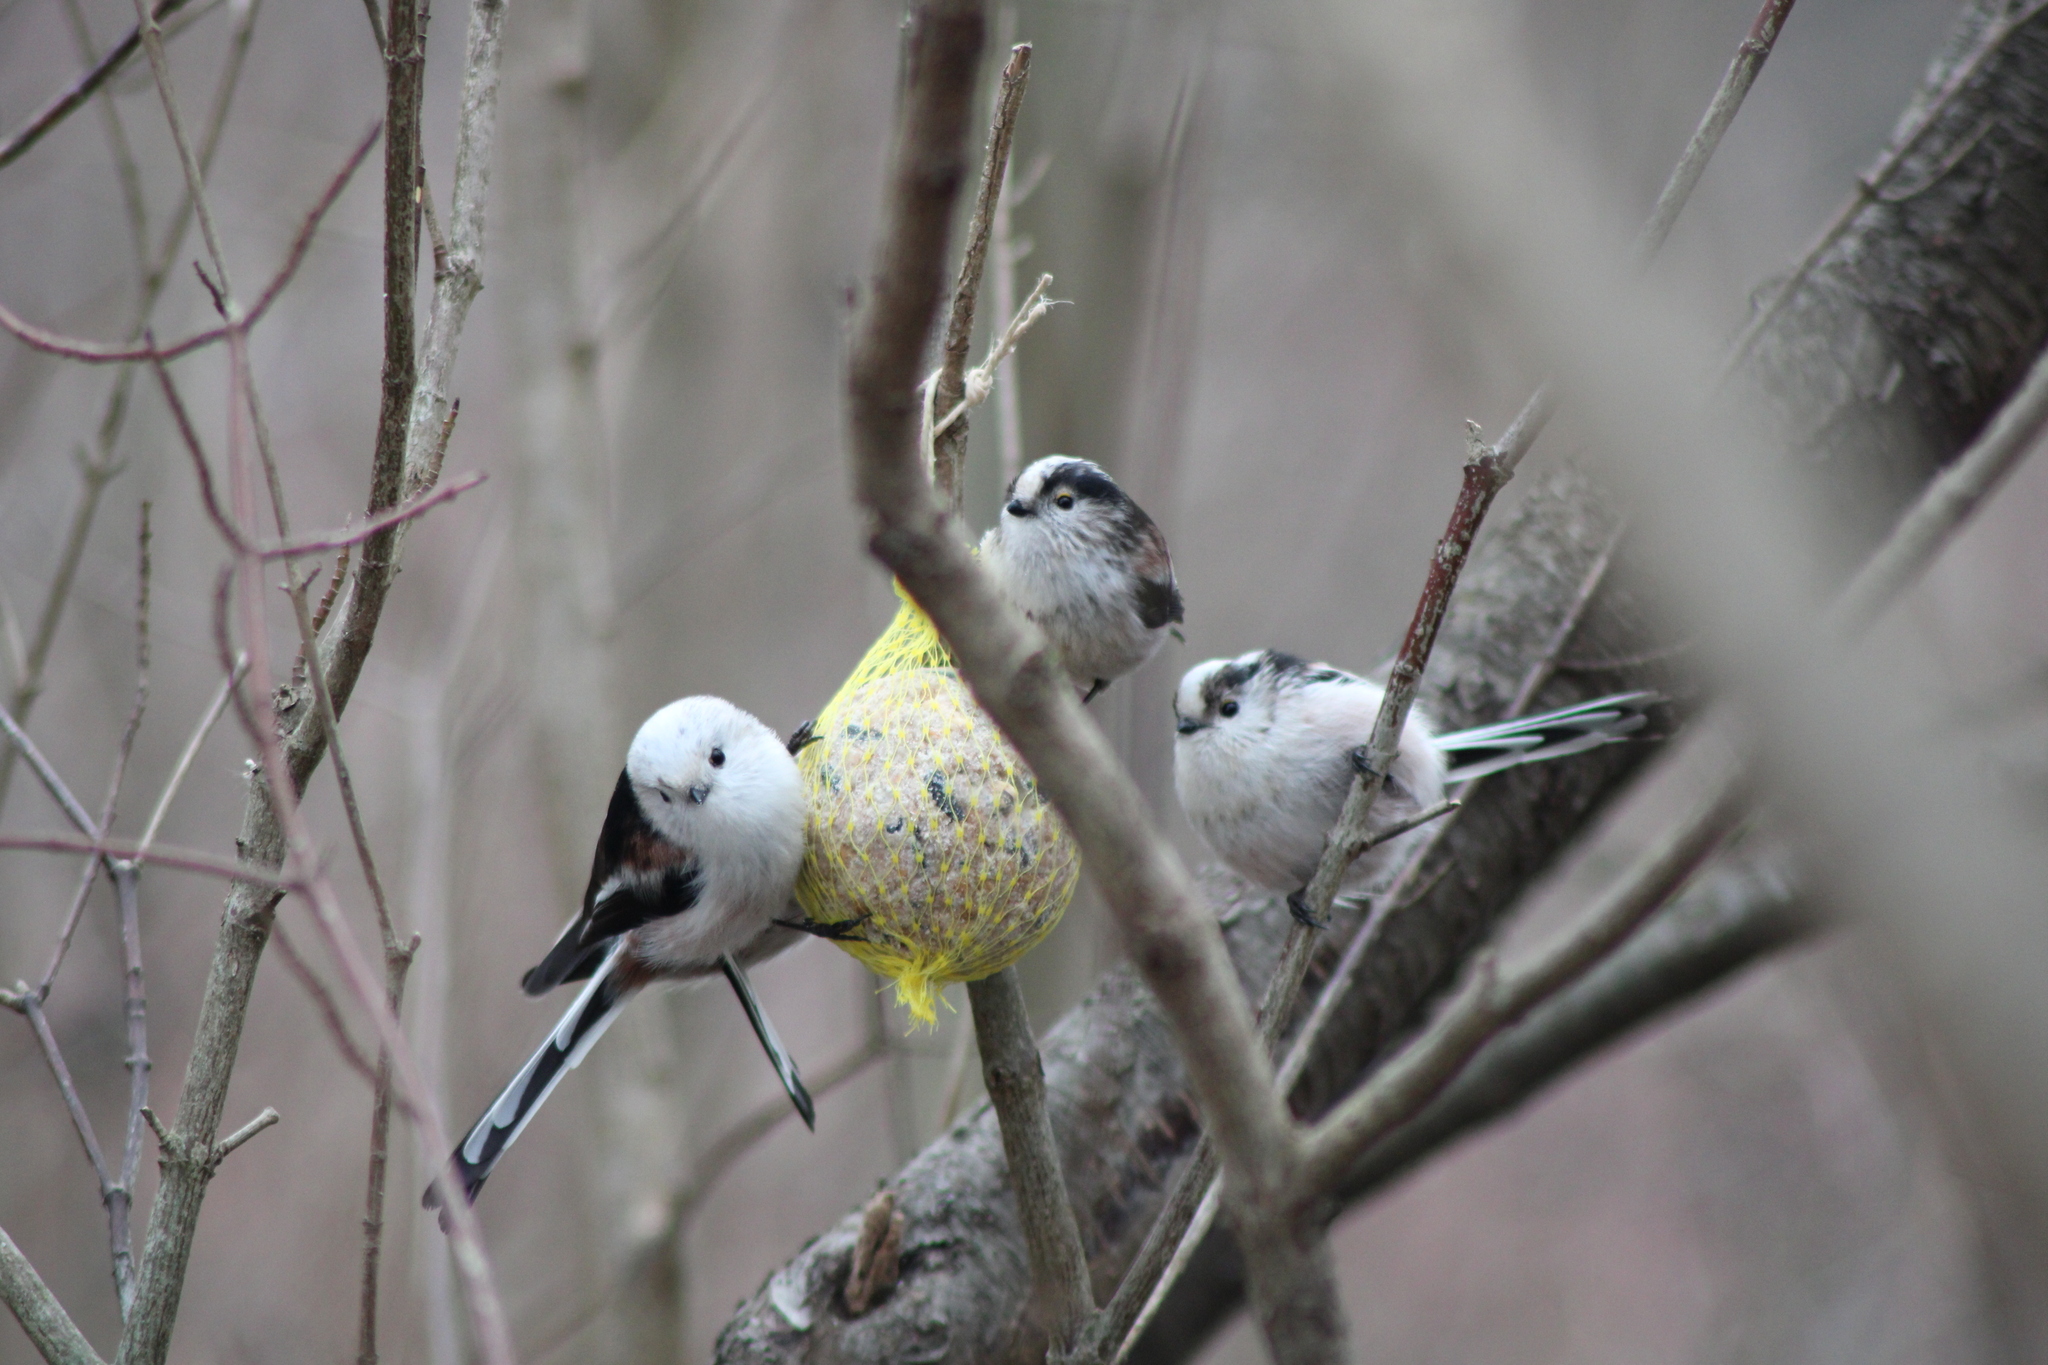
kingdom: Animalia
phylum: Chordata
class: Aves
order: Passeriformes
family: Aegithalidae
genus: Aegithalos
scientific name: Aegithalos caudatus
